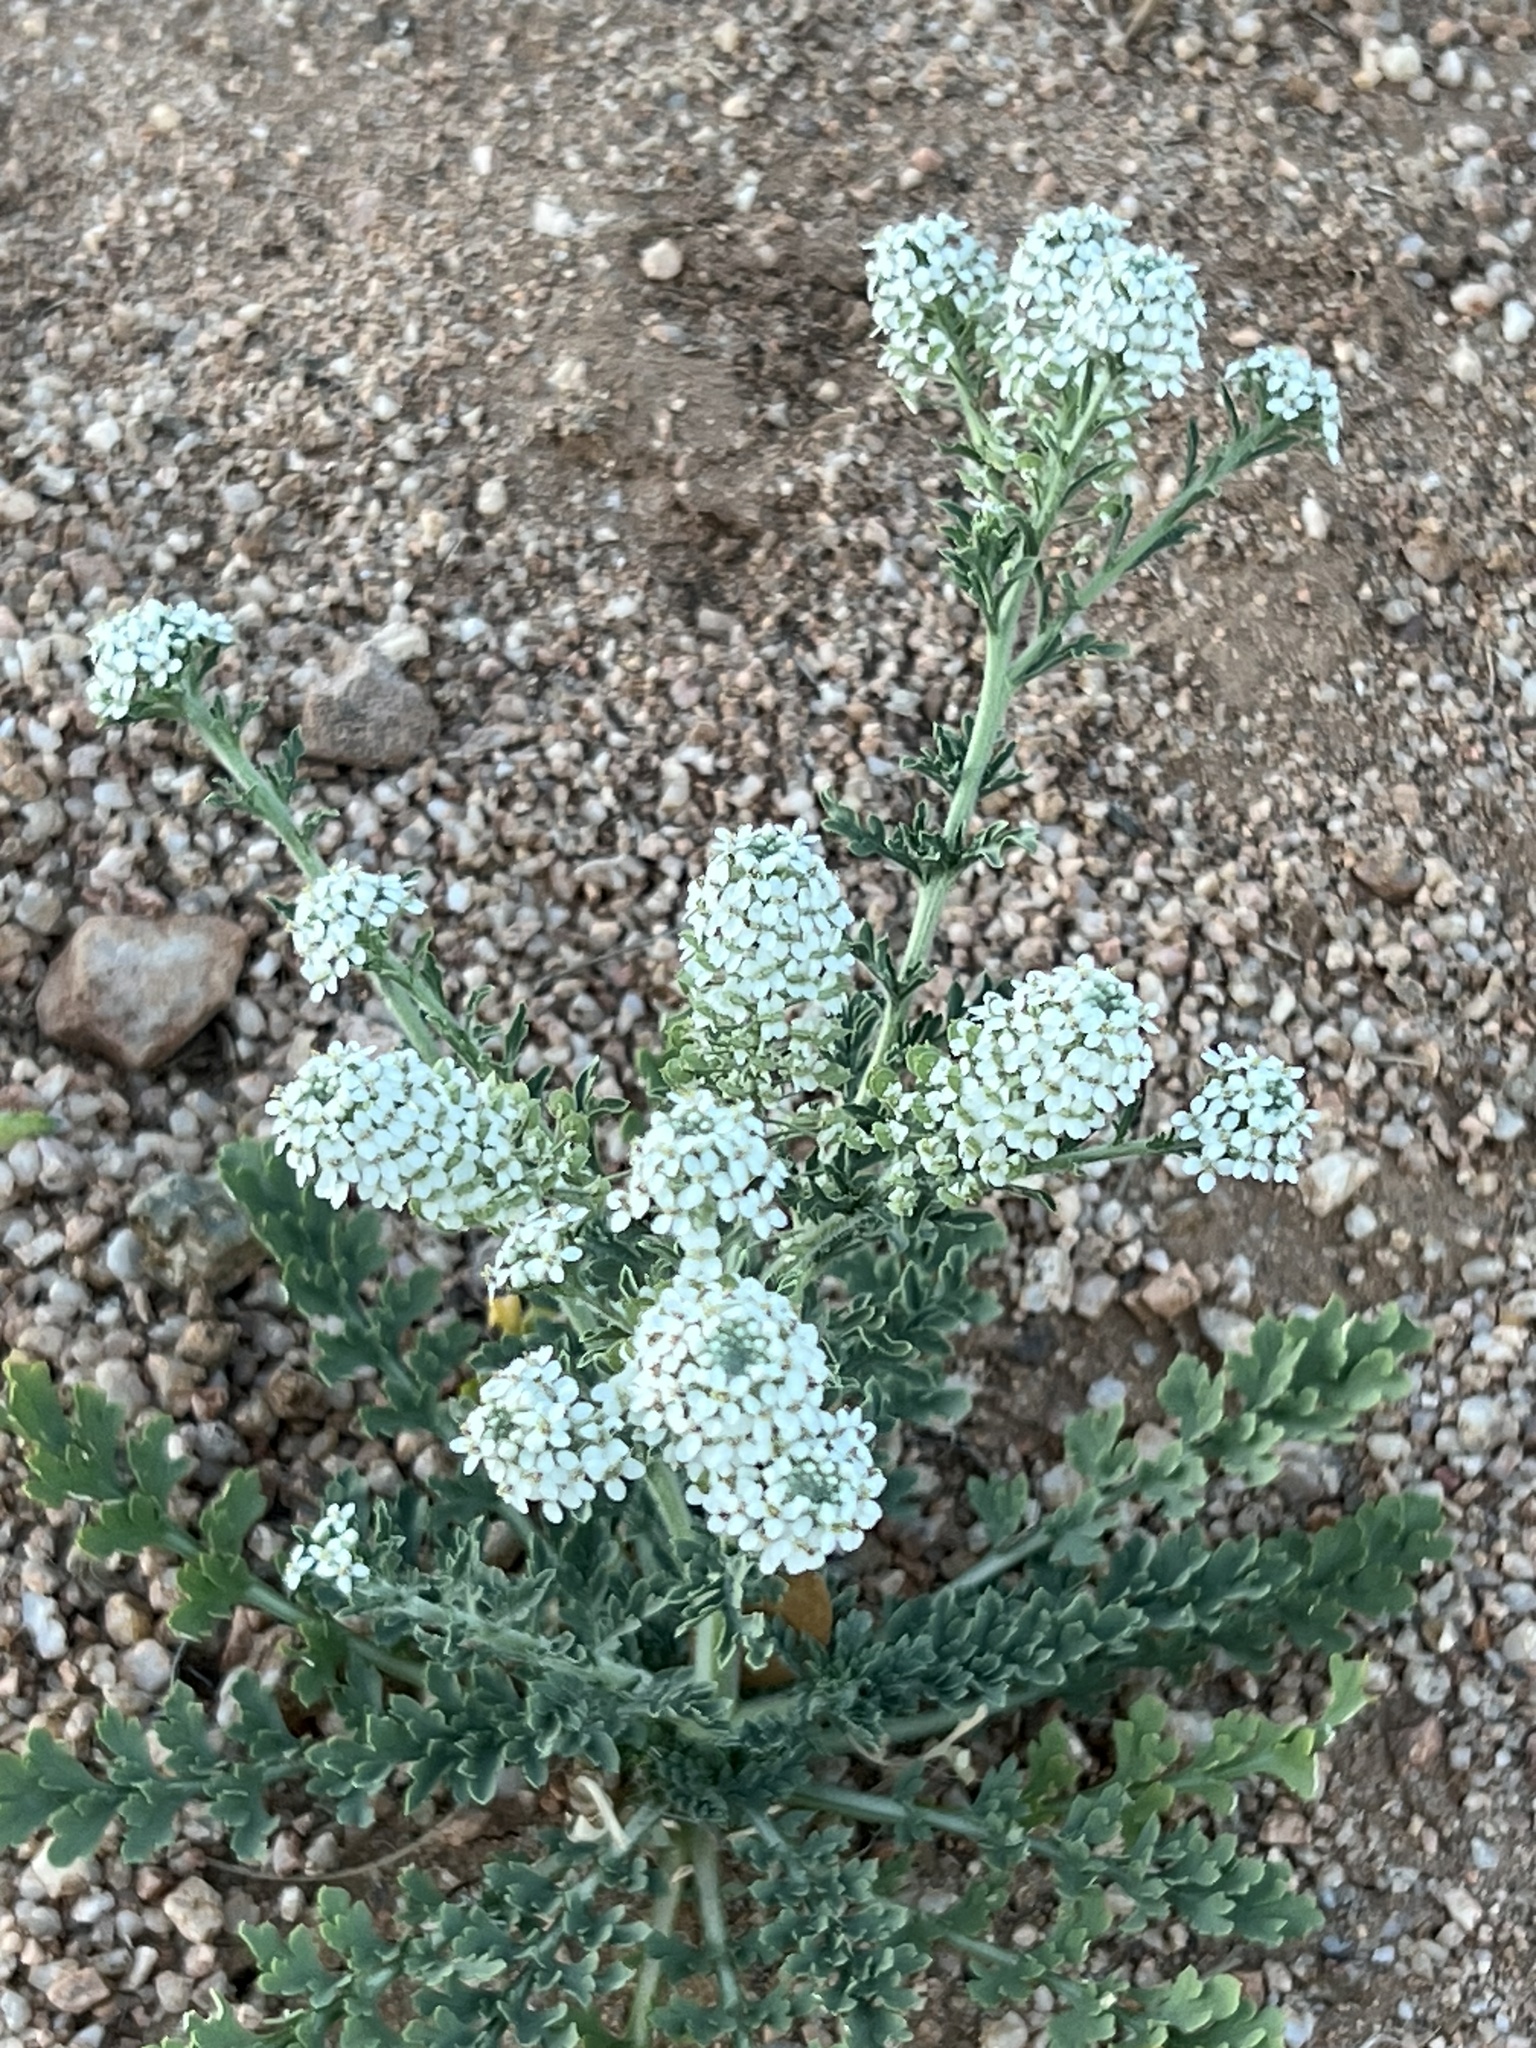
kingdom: Plantae
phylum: Tracheophyta
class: Magnoliopsida
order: Brassicales
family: Brassicaceae
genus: Lepidium
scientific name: Lepidium thurberi
